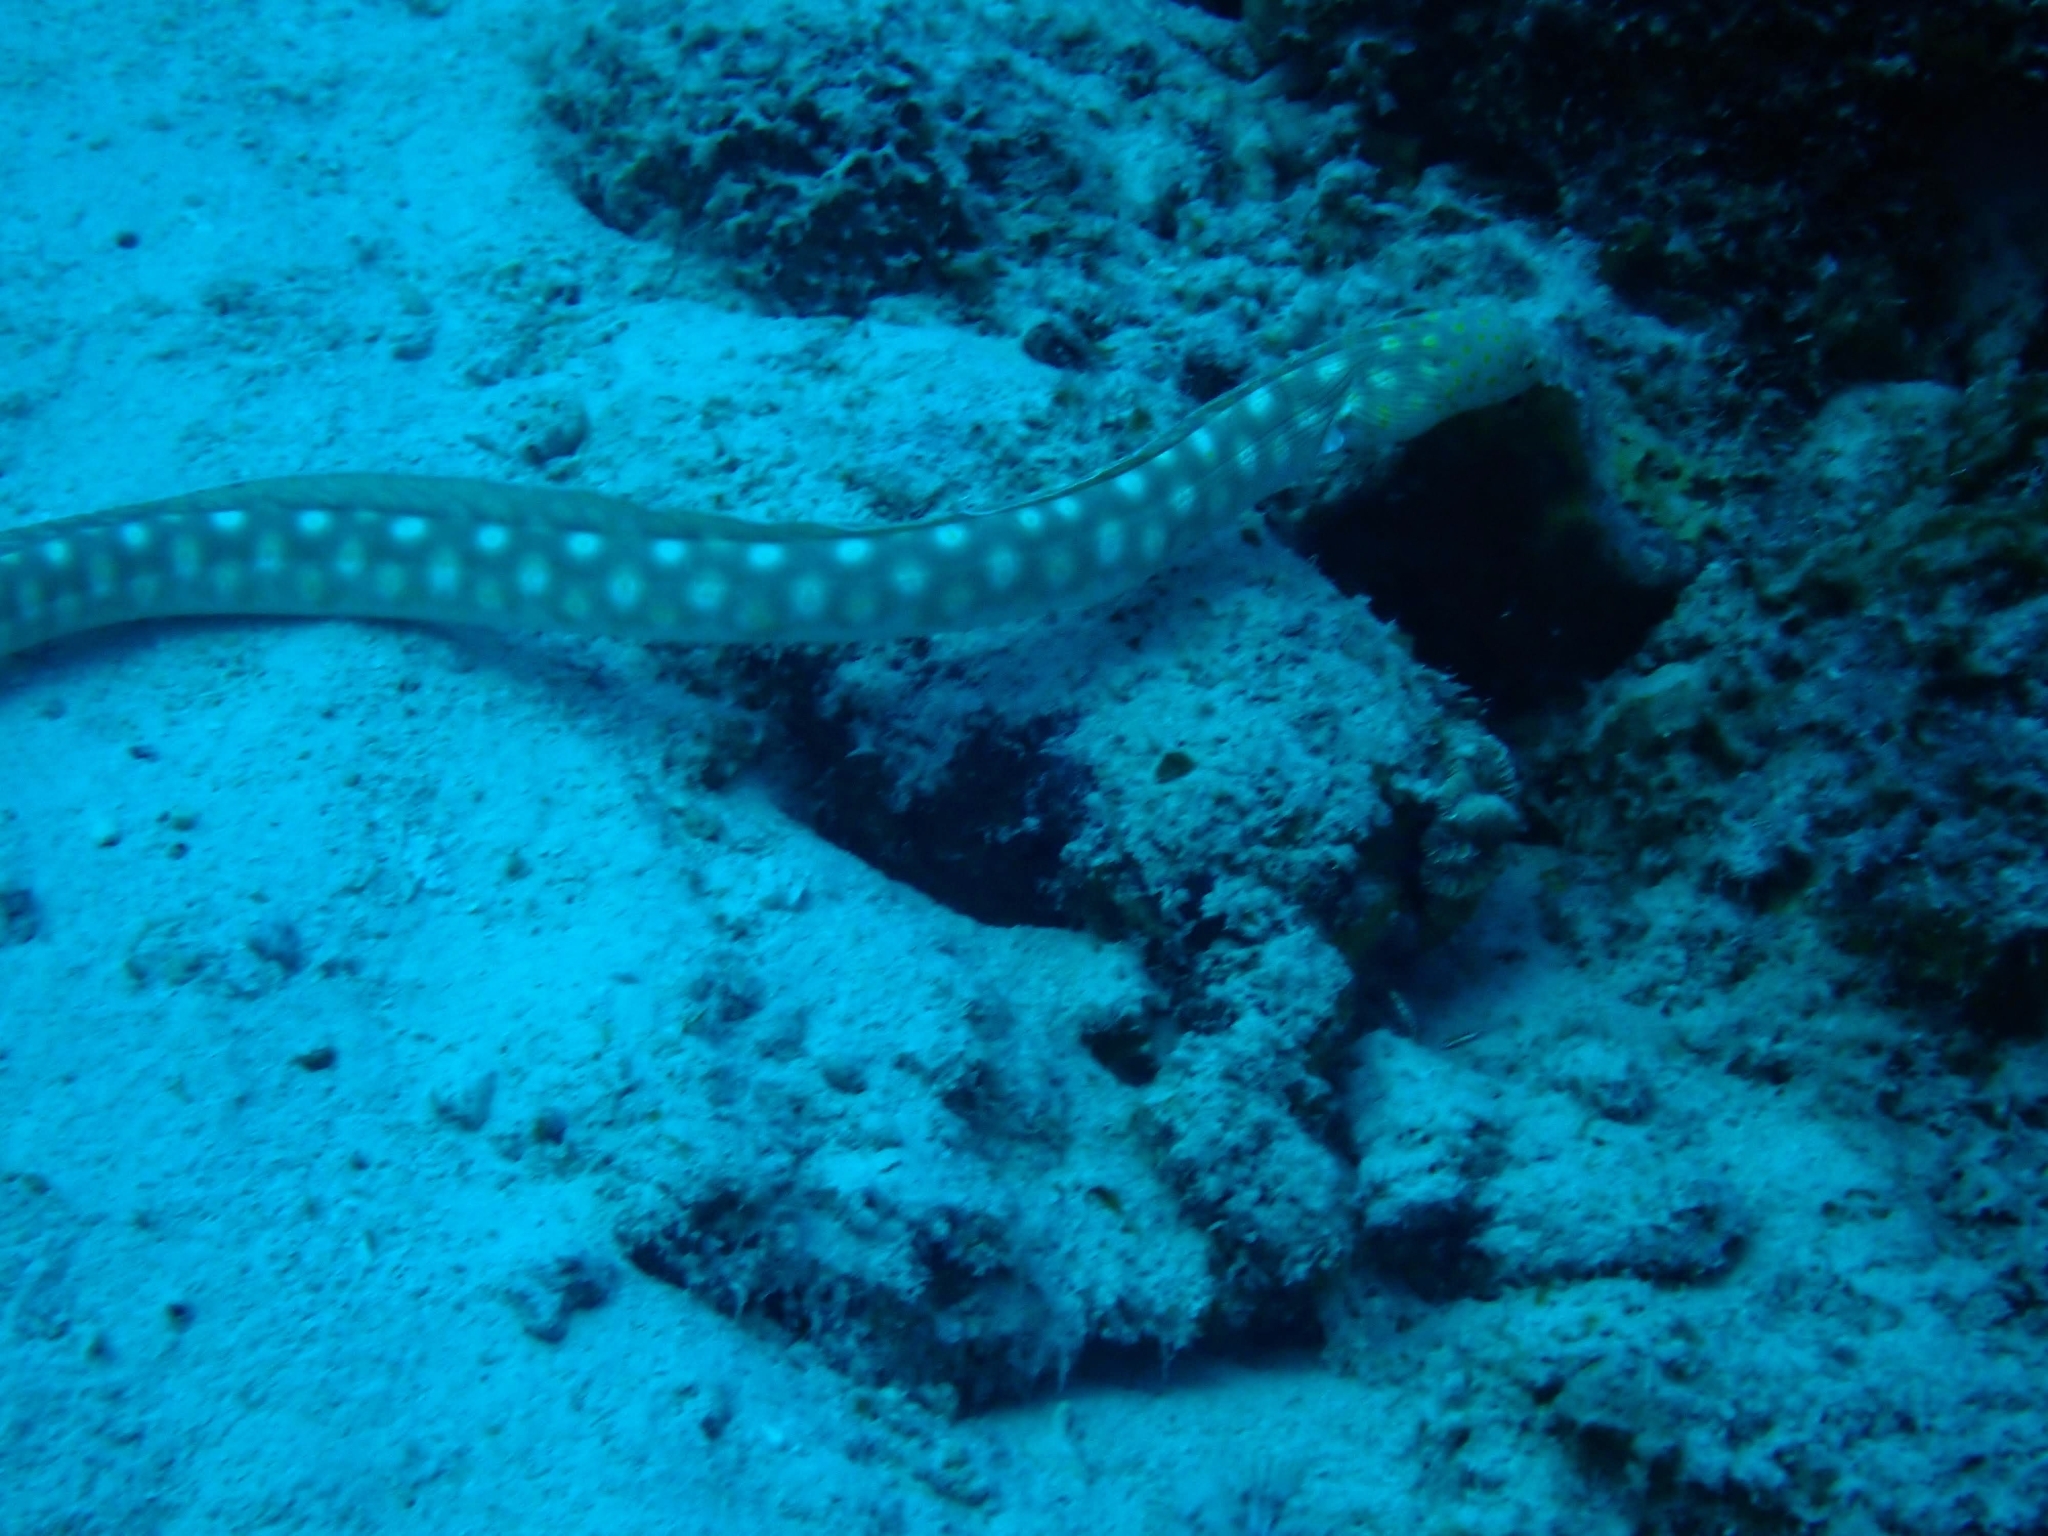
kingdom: Animalia
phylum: Chordata
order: Anguilliformes
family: Ophichthidae
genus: Myrichthys
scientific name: Myrichthys breviceps
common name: Sharptail eel
